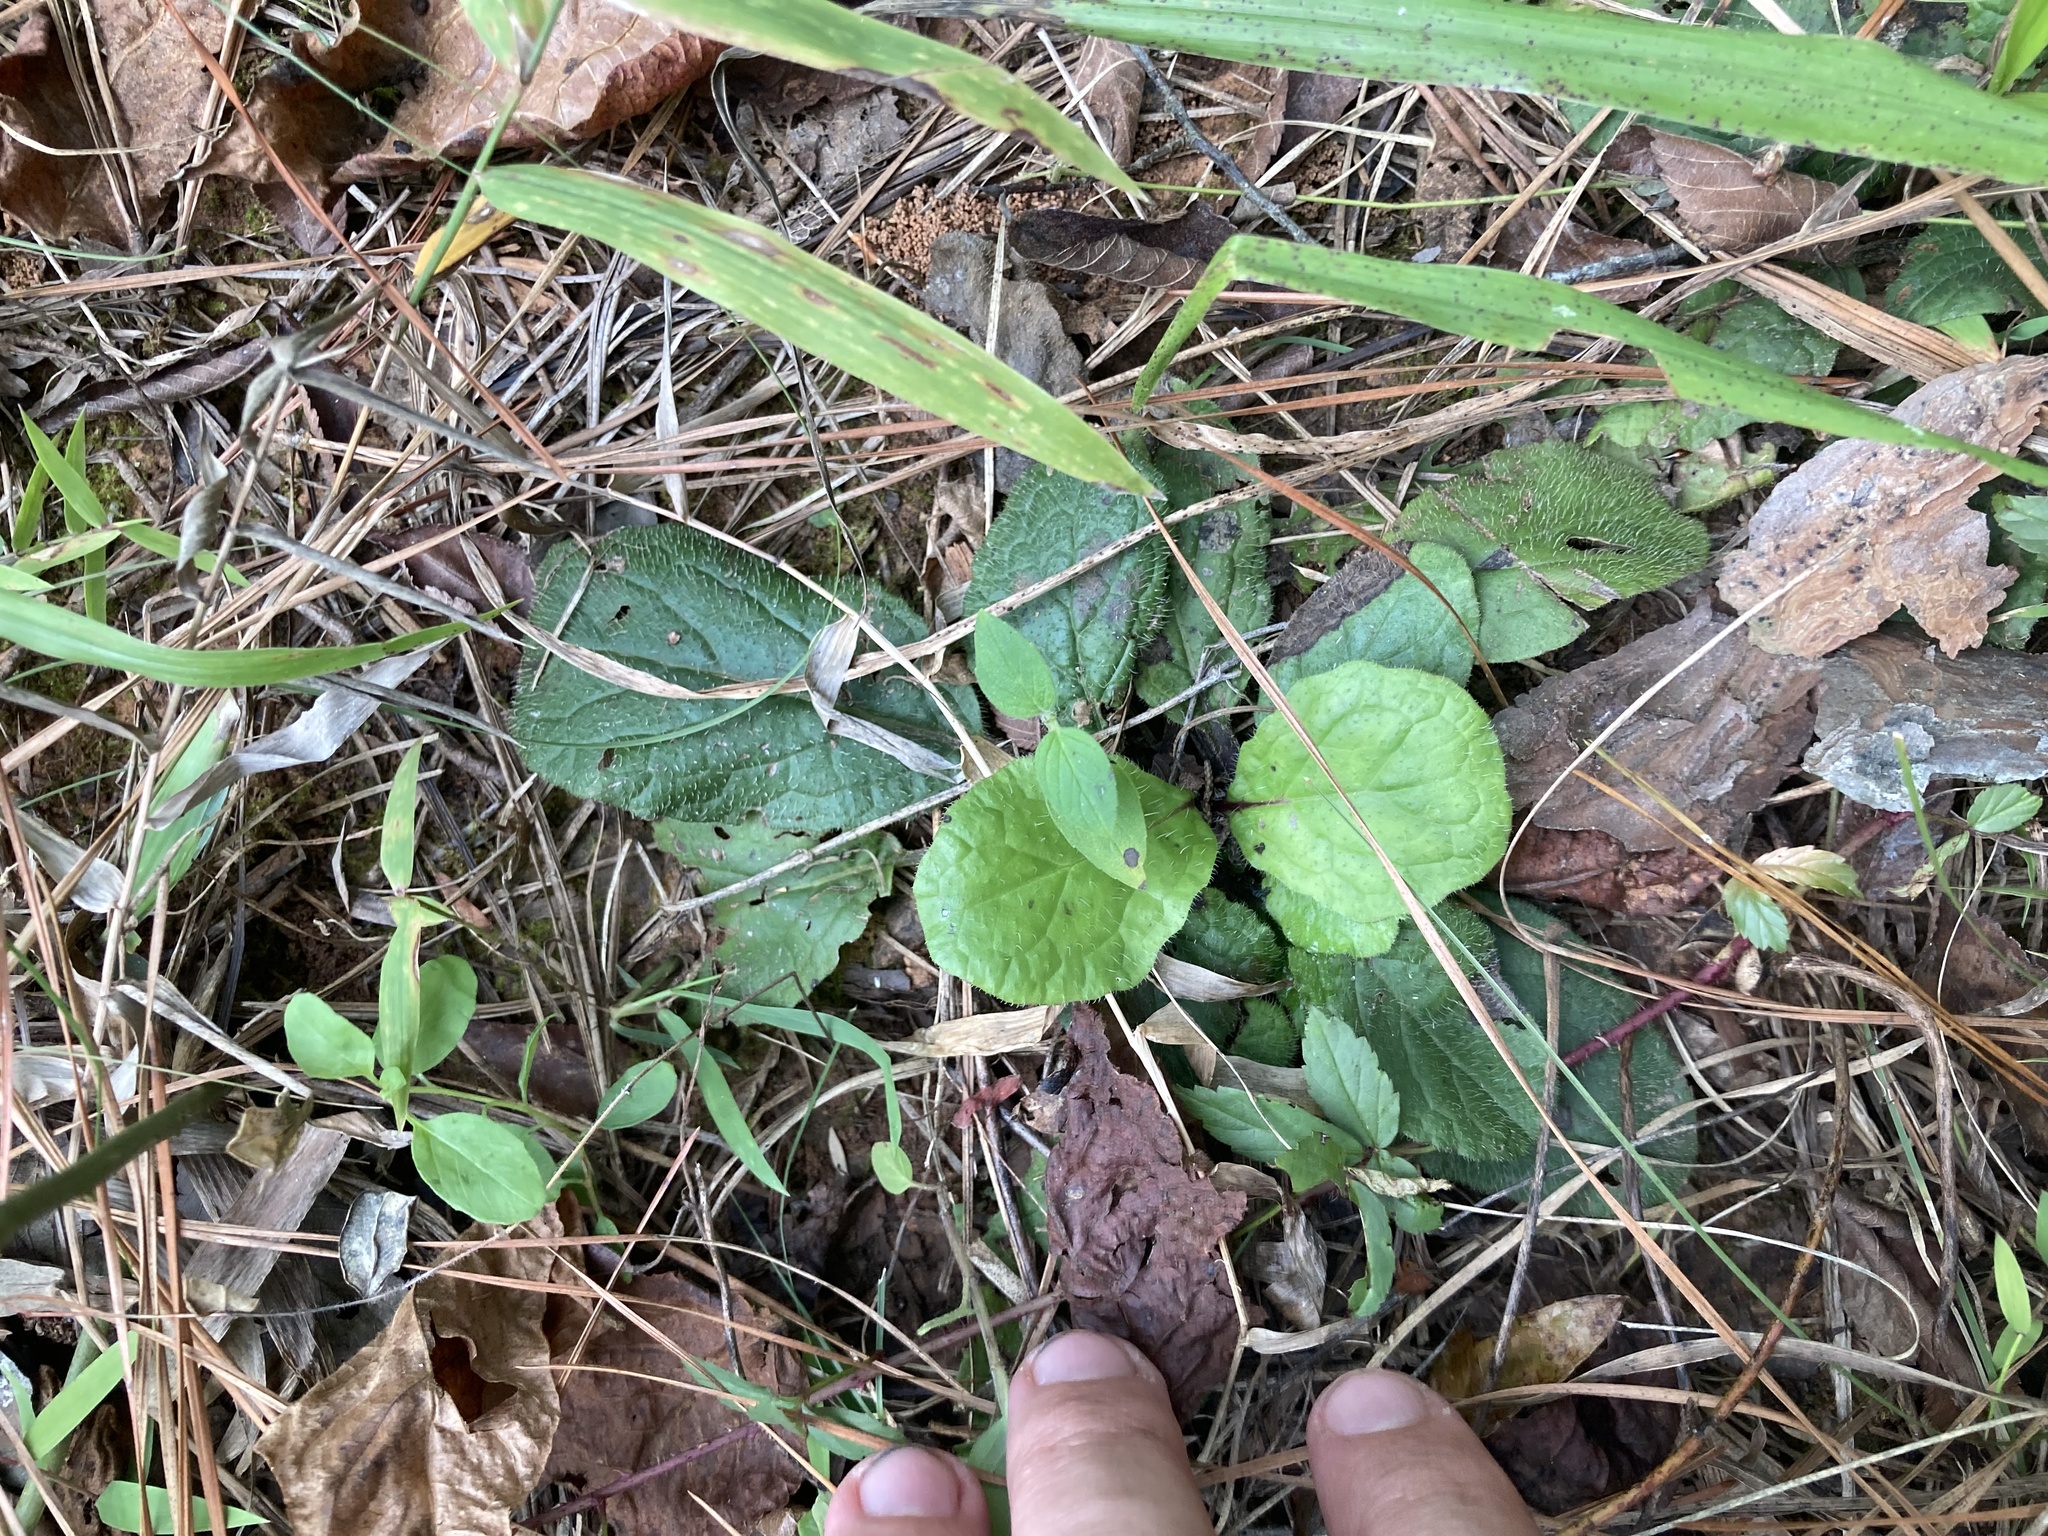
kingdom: Plantae
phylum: Tracheophyta
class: Magnoliopsida
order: Lamiales
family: Lamiaceae
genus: Salvia
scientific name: Salvia lyrata
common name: Cancerweed
